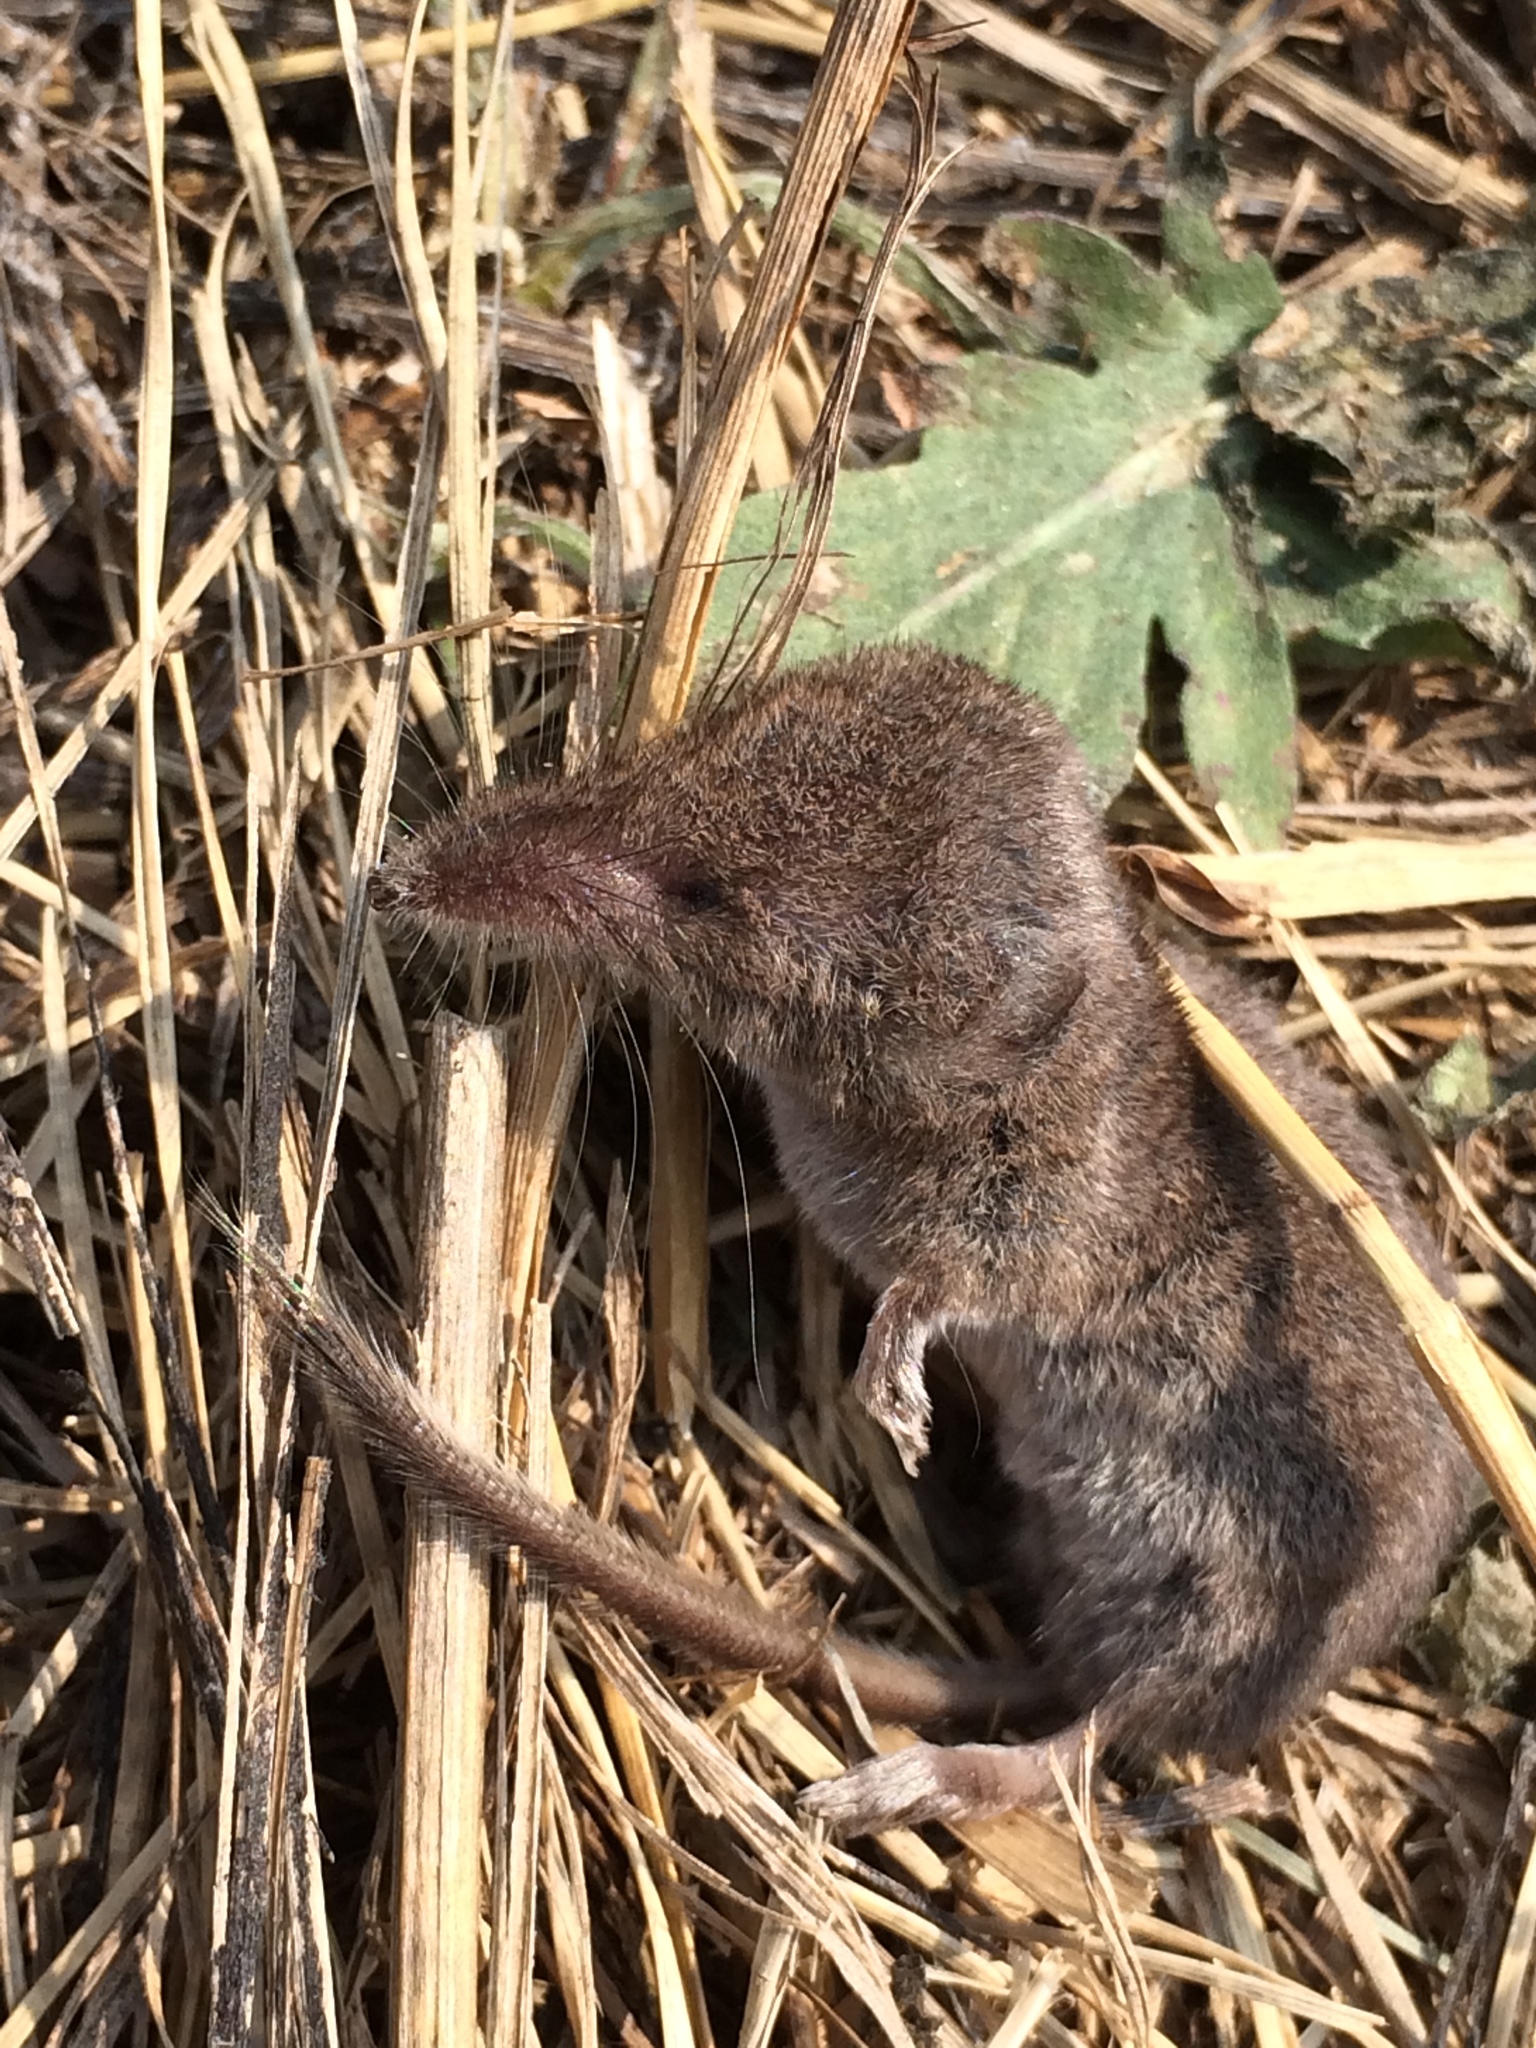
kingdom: Animalia
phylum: Chordata
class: Mammalia
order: Soricomorpha
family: Soricidae
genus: Sorex
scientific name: Sorex cinereus
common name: Cinereus shrew
